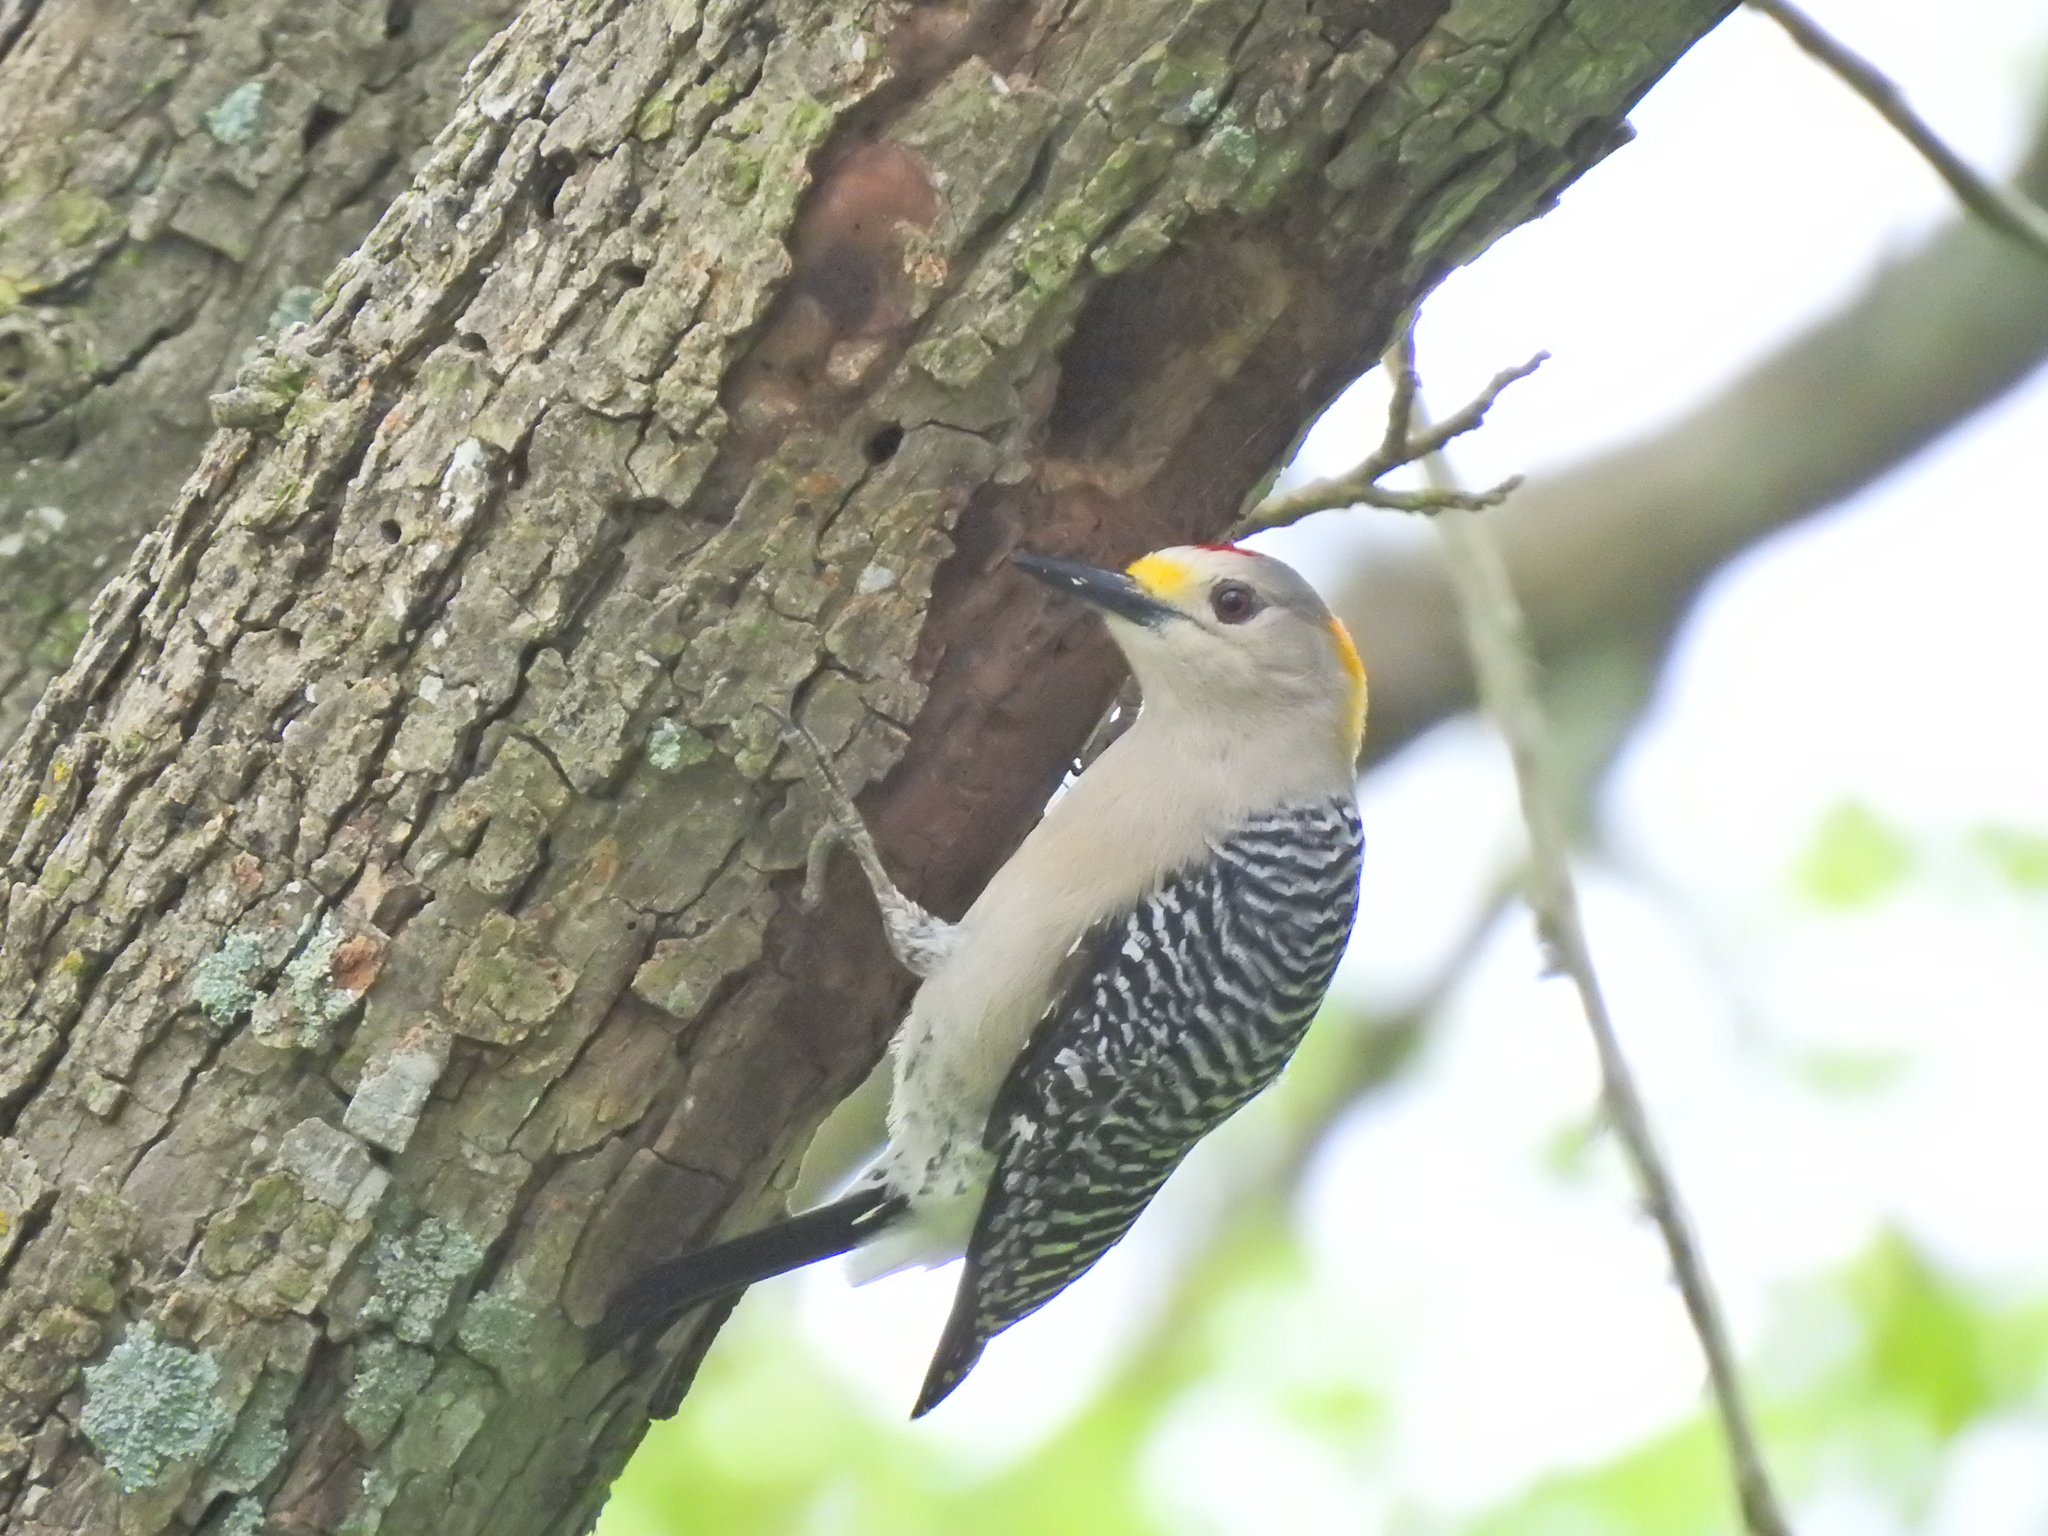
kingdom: Animalia
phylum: Chordata
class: Aves
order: Piciformes
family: Picidae
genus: Melanerpes
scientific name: Melanerpes aurifrons
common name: Golden-fronted woodpecker
